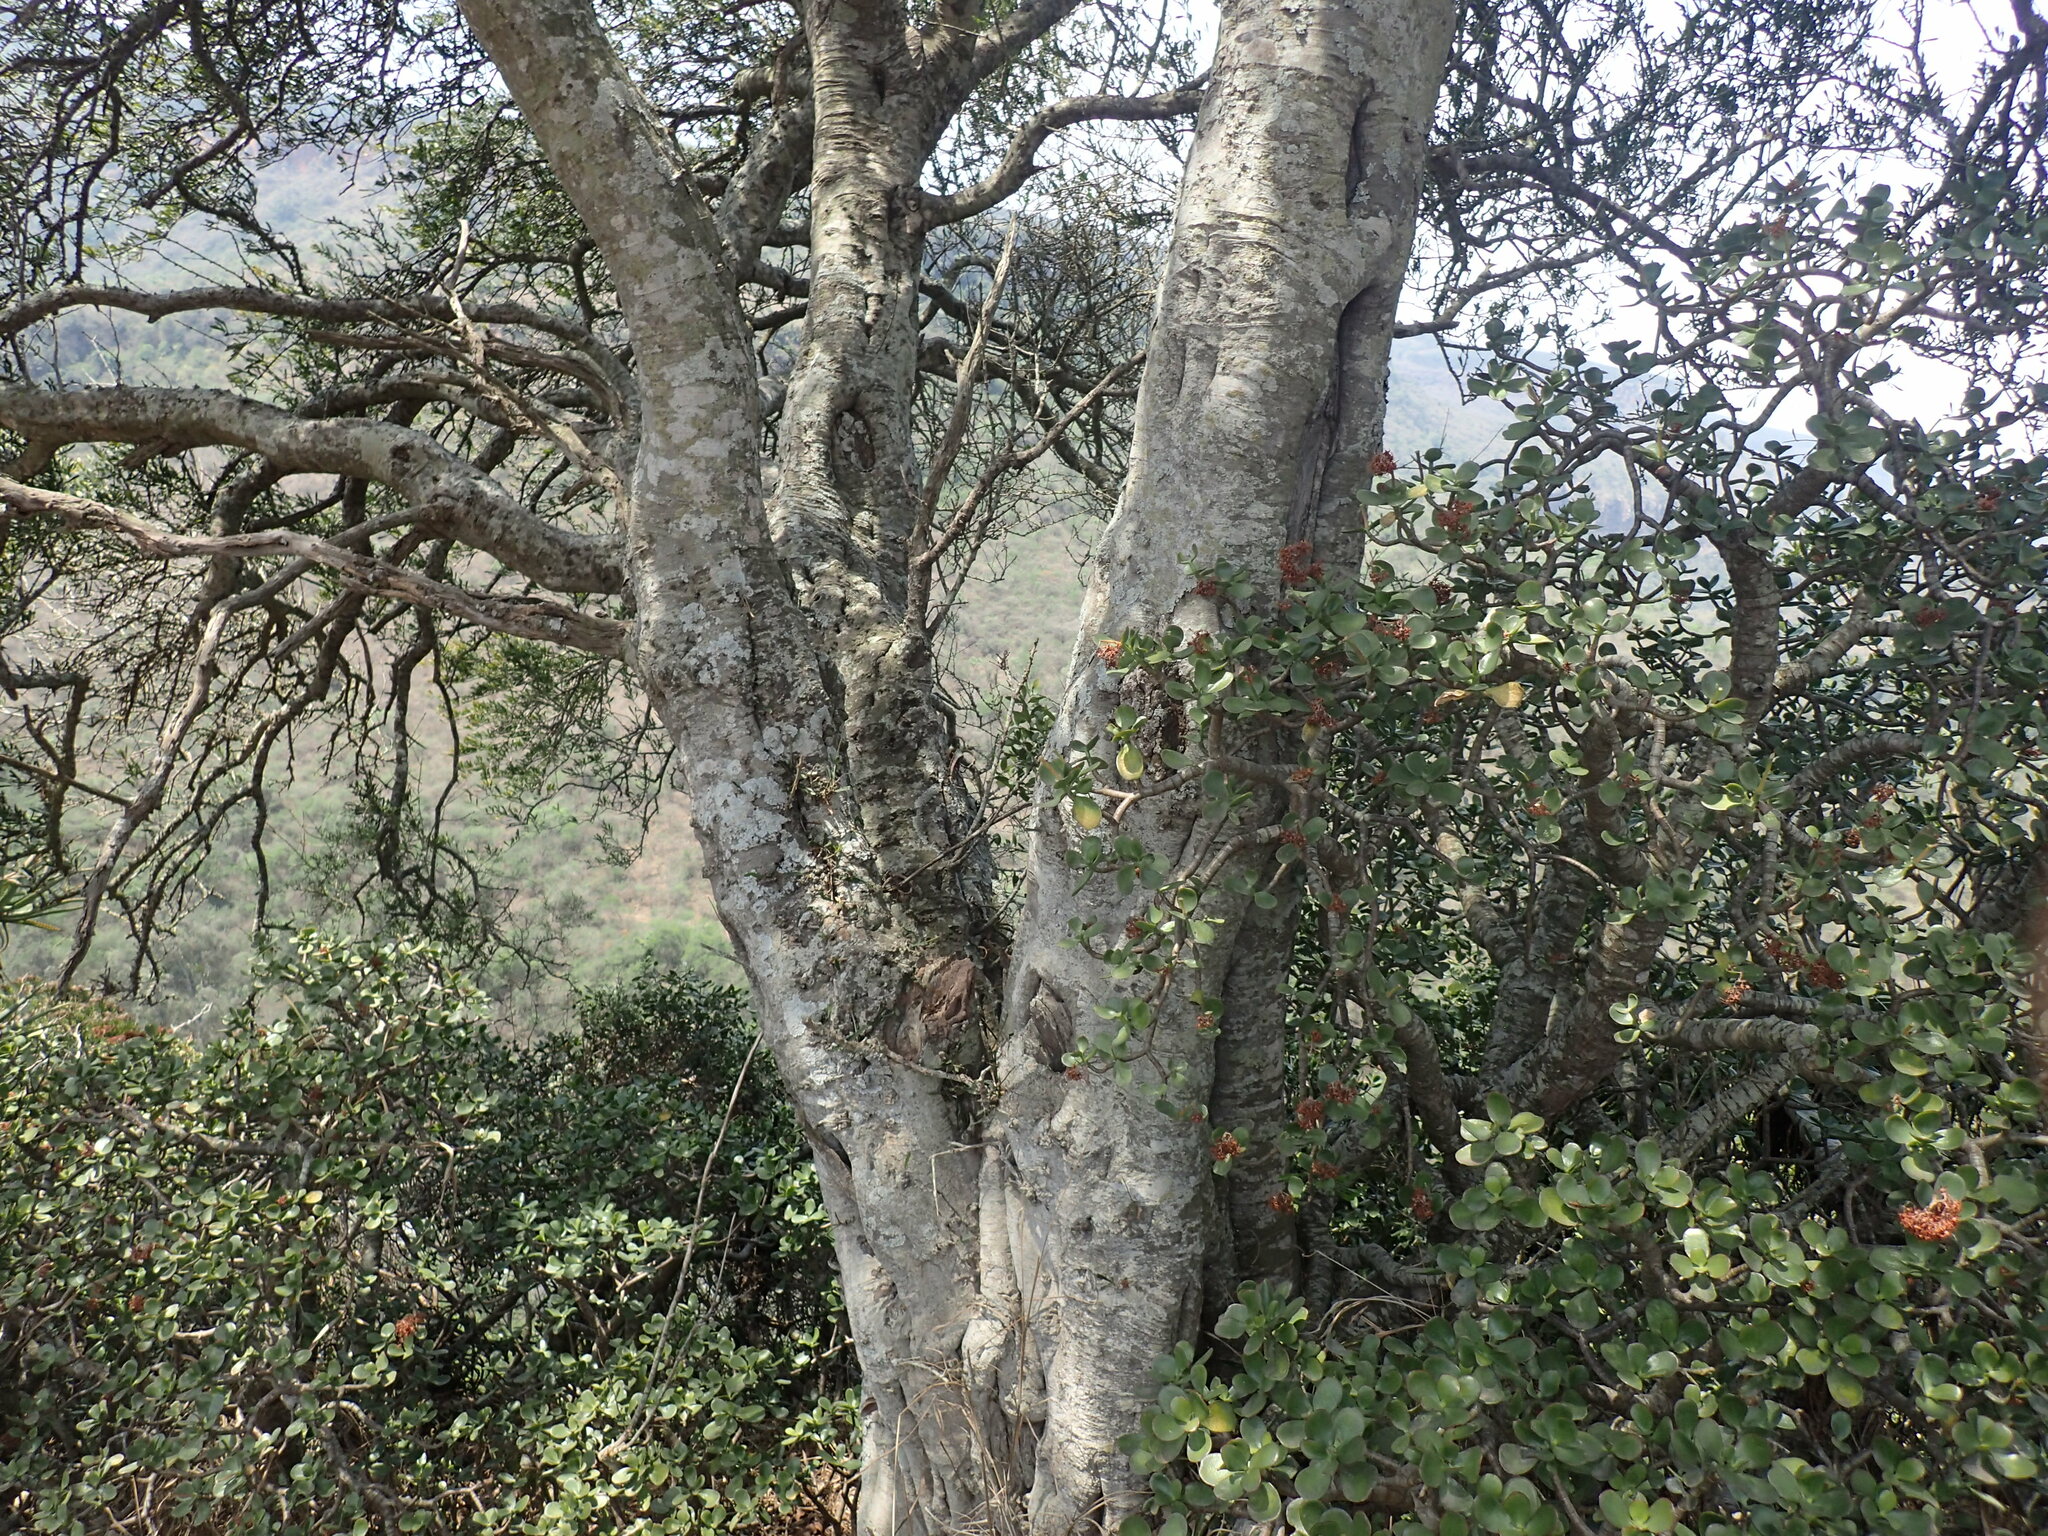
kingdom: Plantae
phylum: Tracheophyta
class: Magnoliopsida
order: Brassicales
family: Capparaceae
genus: Boscia
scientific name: Boscia foetida
